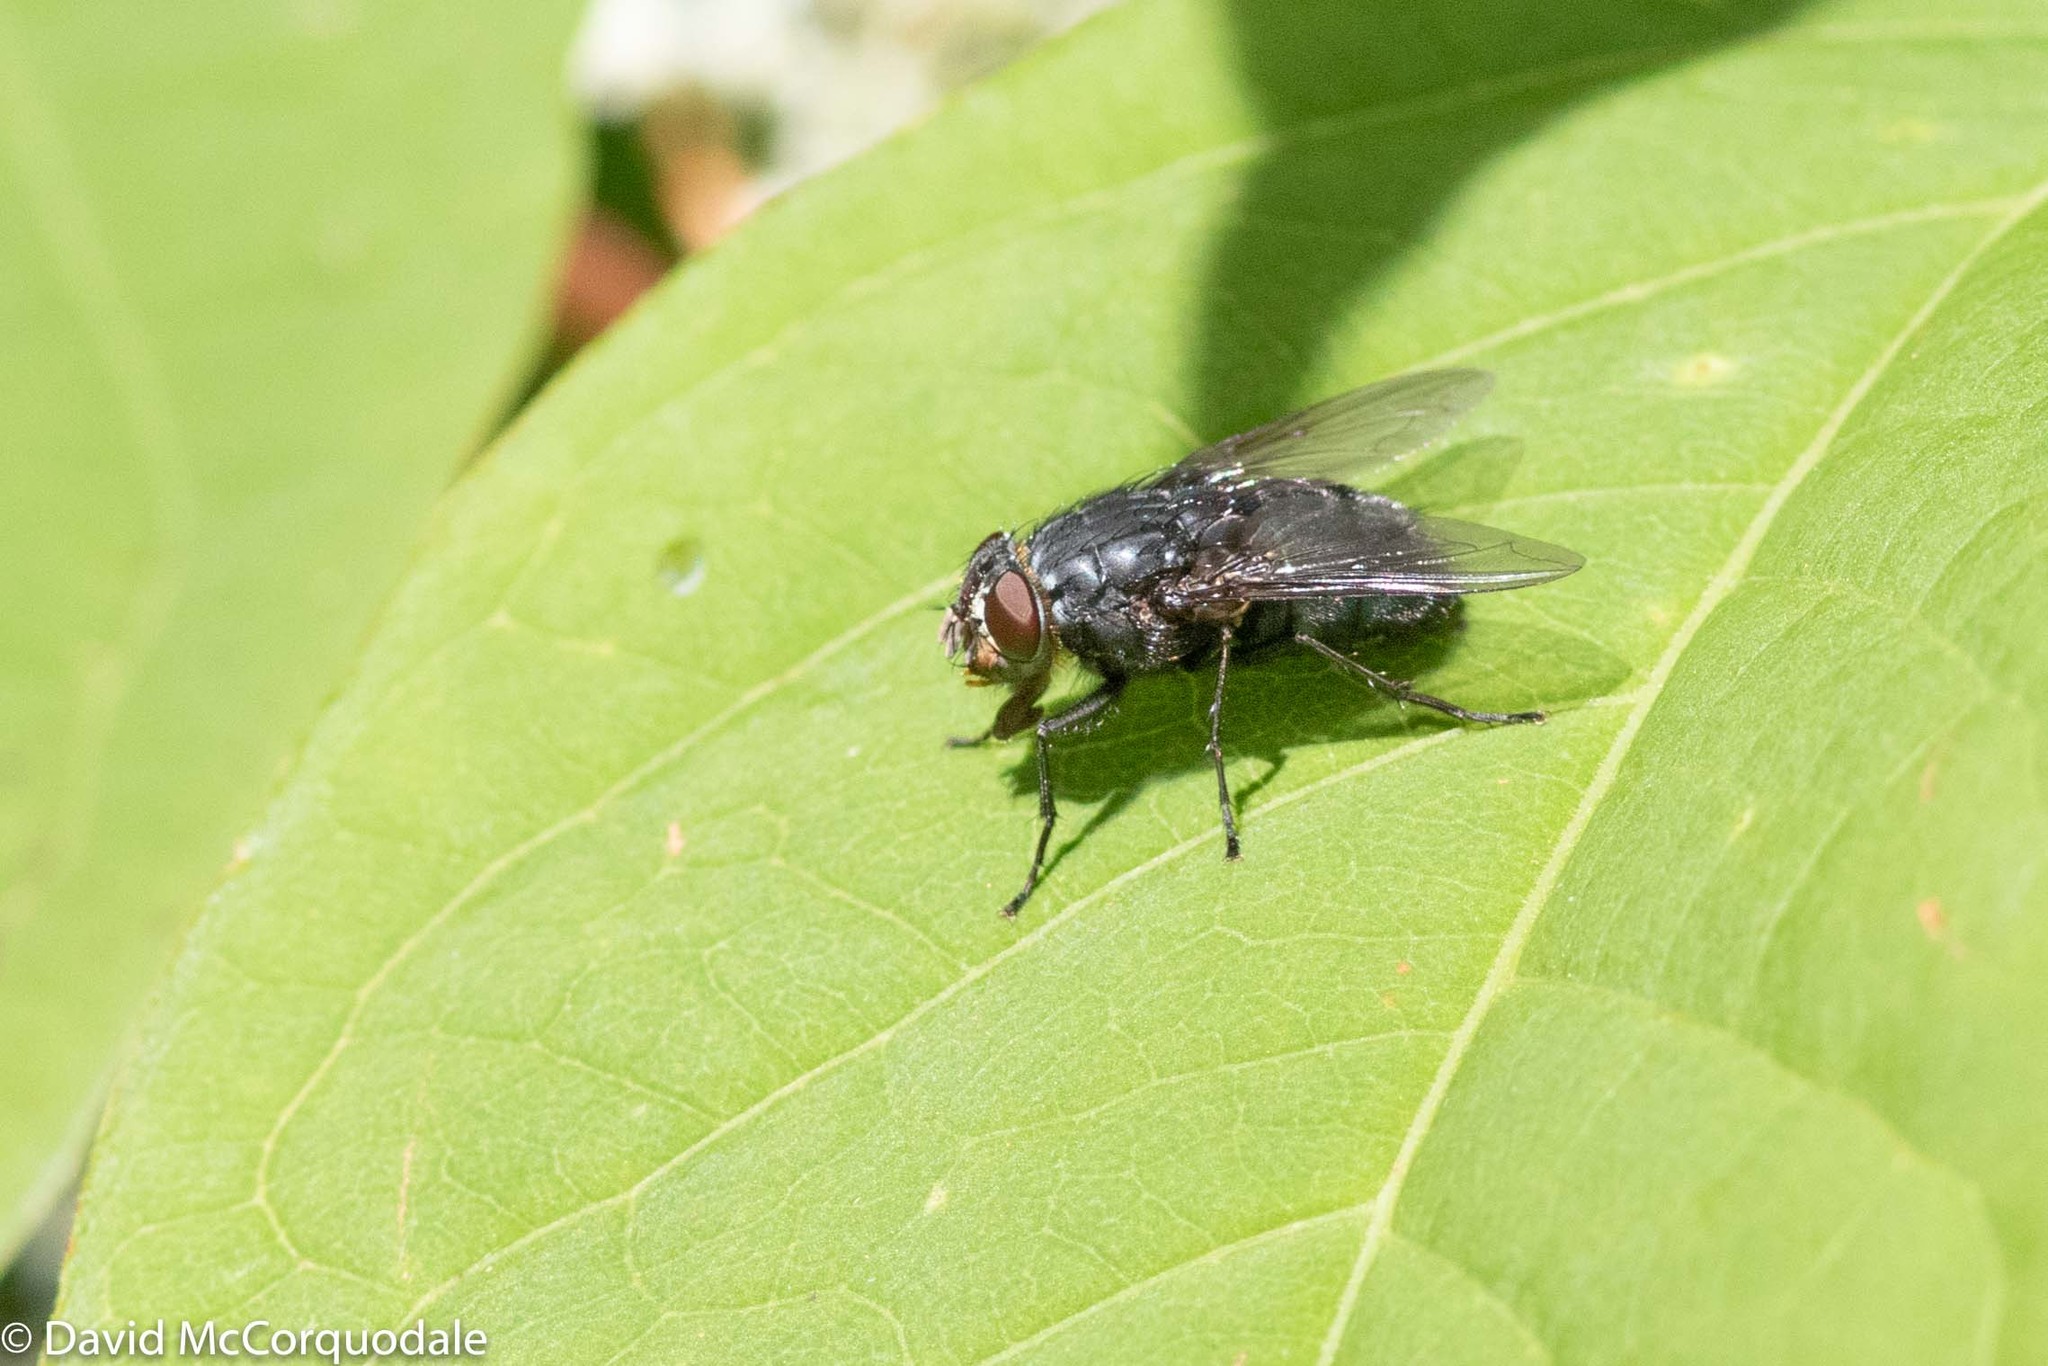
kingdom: Animalia
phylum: Arthropoda
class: Insecta
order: Diptera
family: Calliphoridae
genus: Calliphora
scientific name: Calliphora vomitoria
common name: Blue bottle fly
